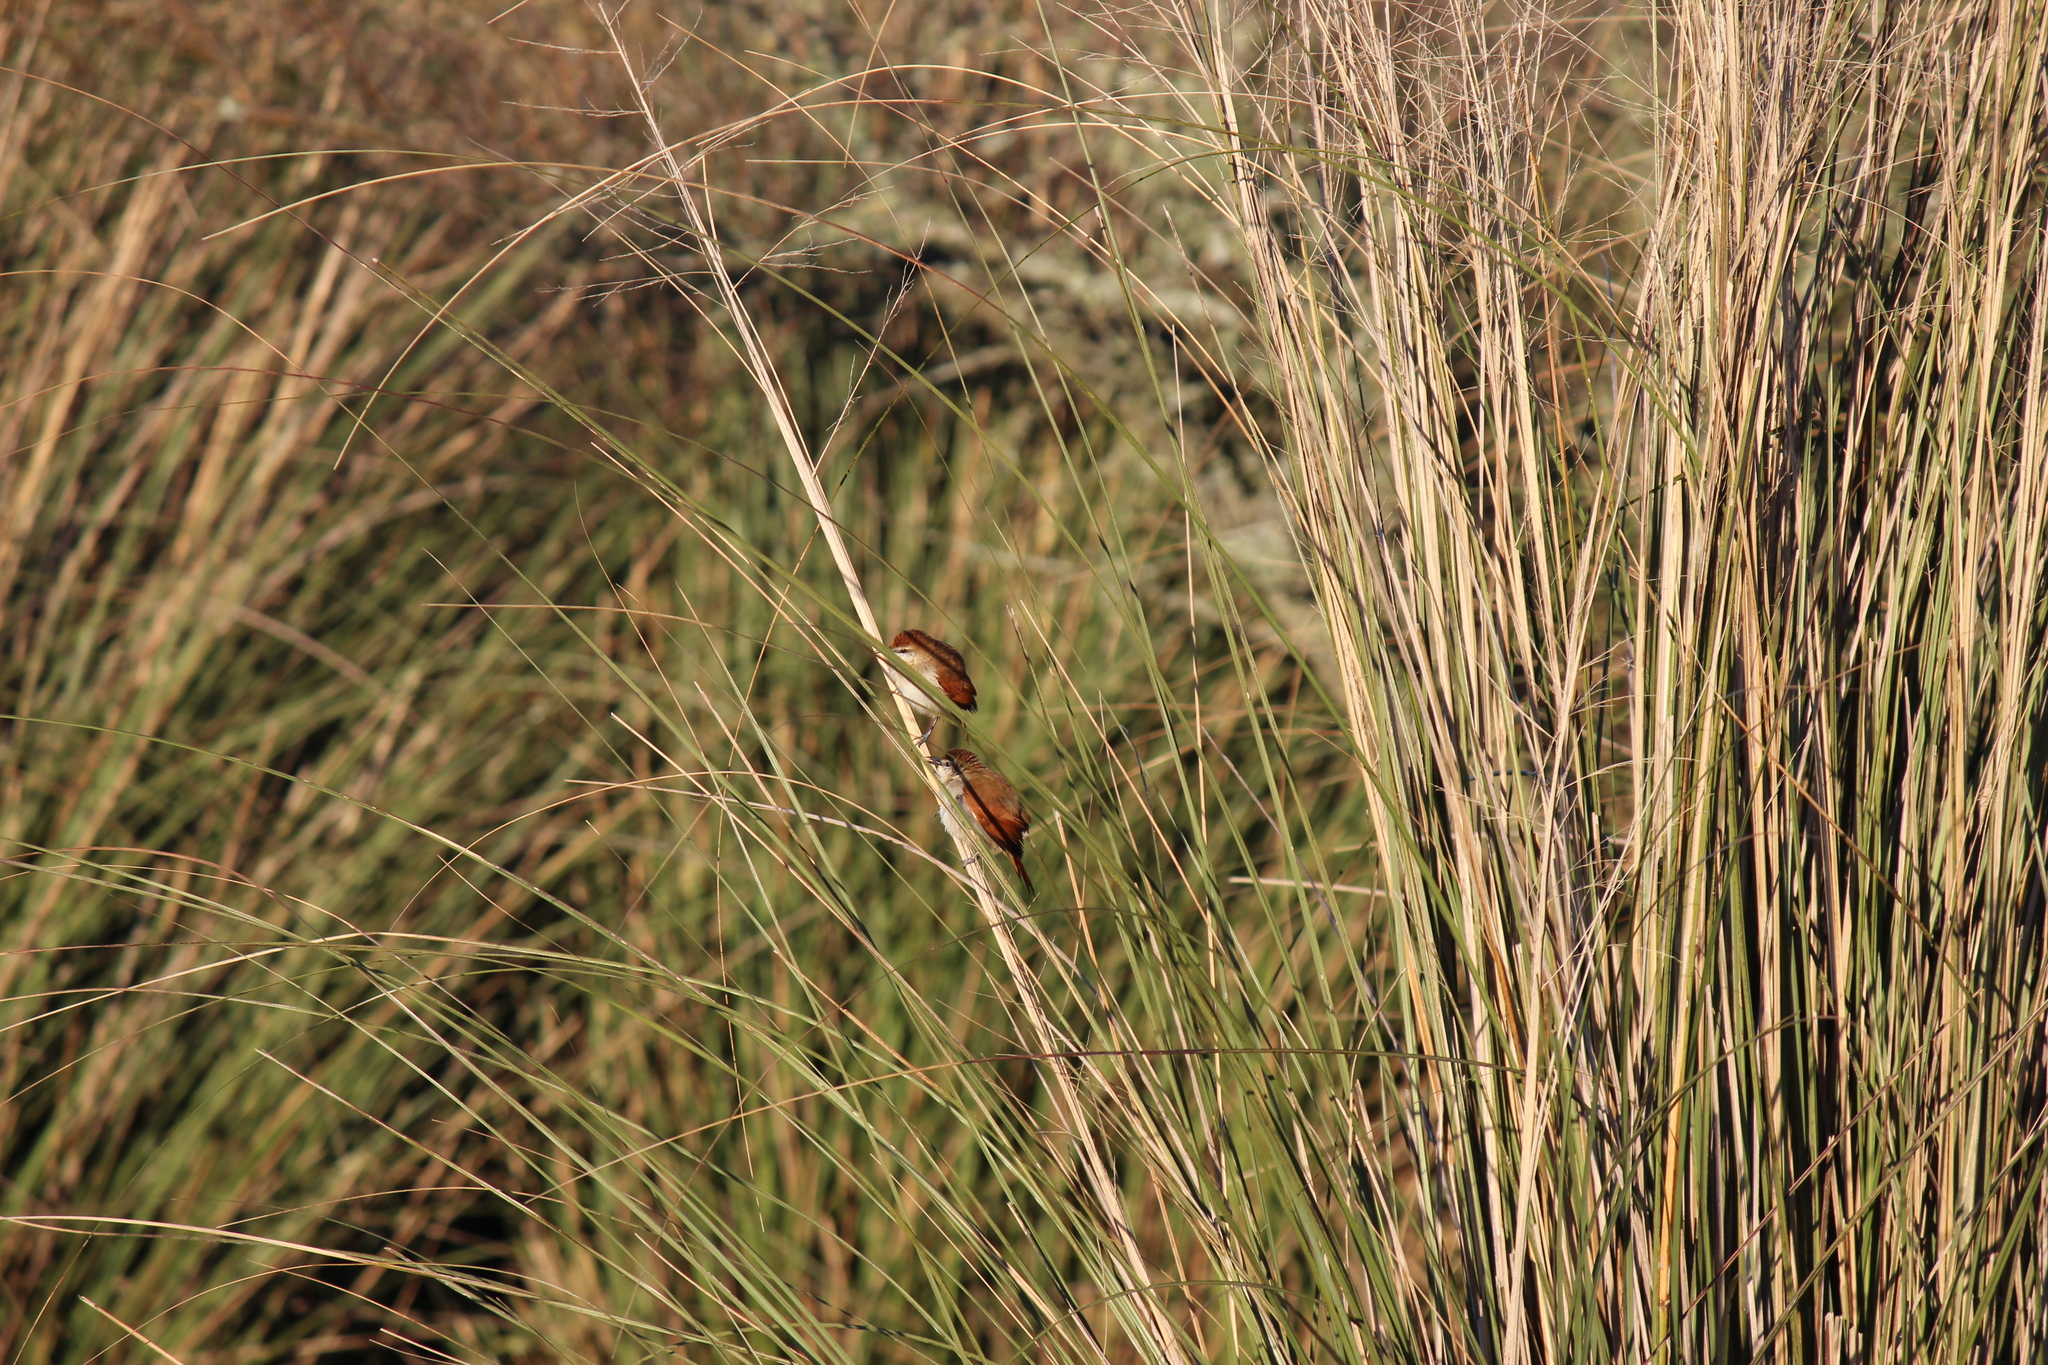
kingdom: Animalia
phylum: Chordata
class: Aves
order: Passeriformes
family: Furnariidae
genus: Certhiaxis
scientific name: Certhiaxis cinnamomeus
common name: Yellow-chinned spinetail
